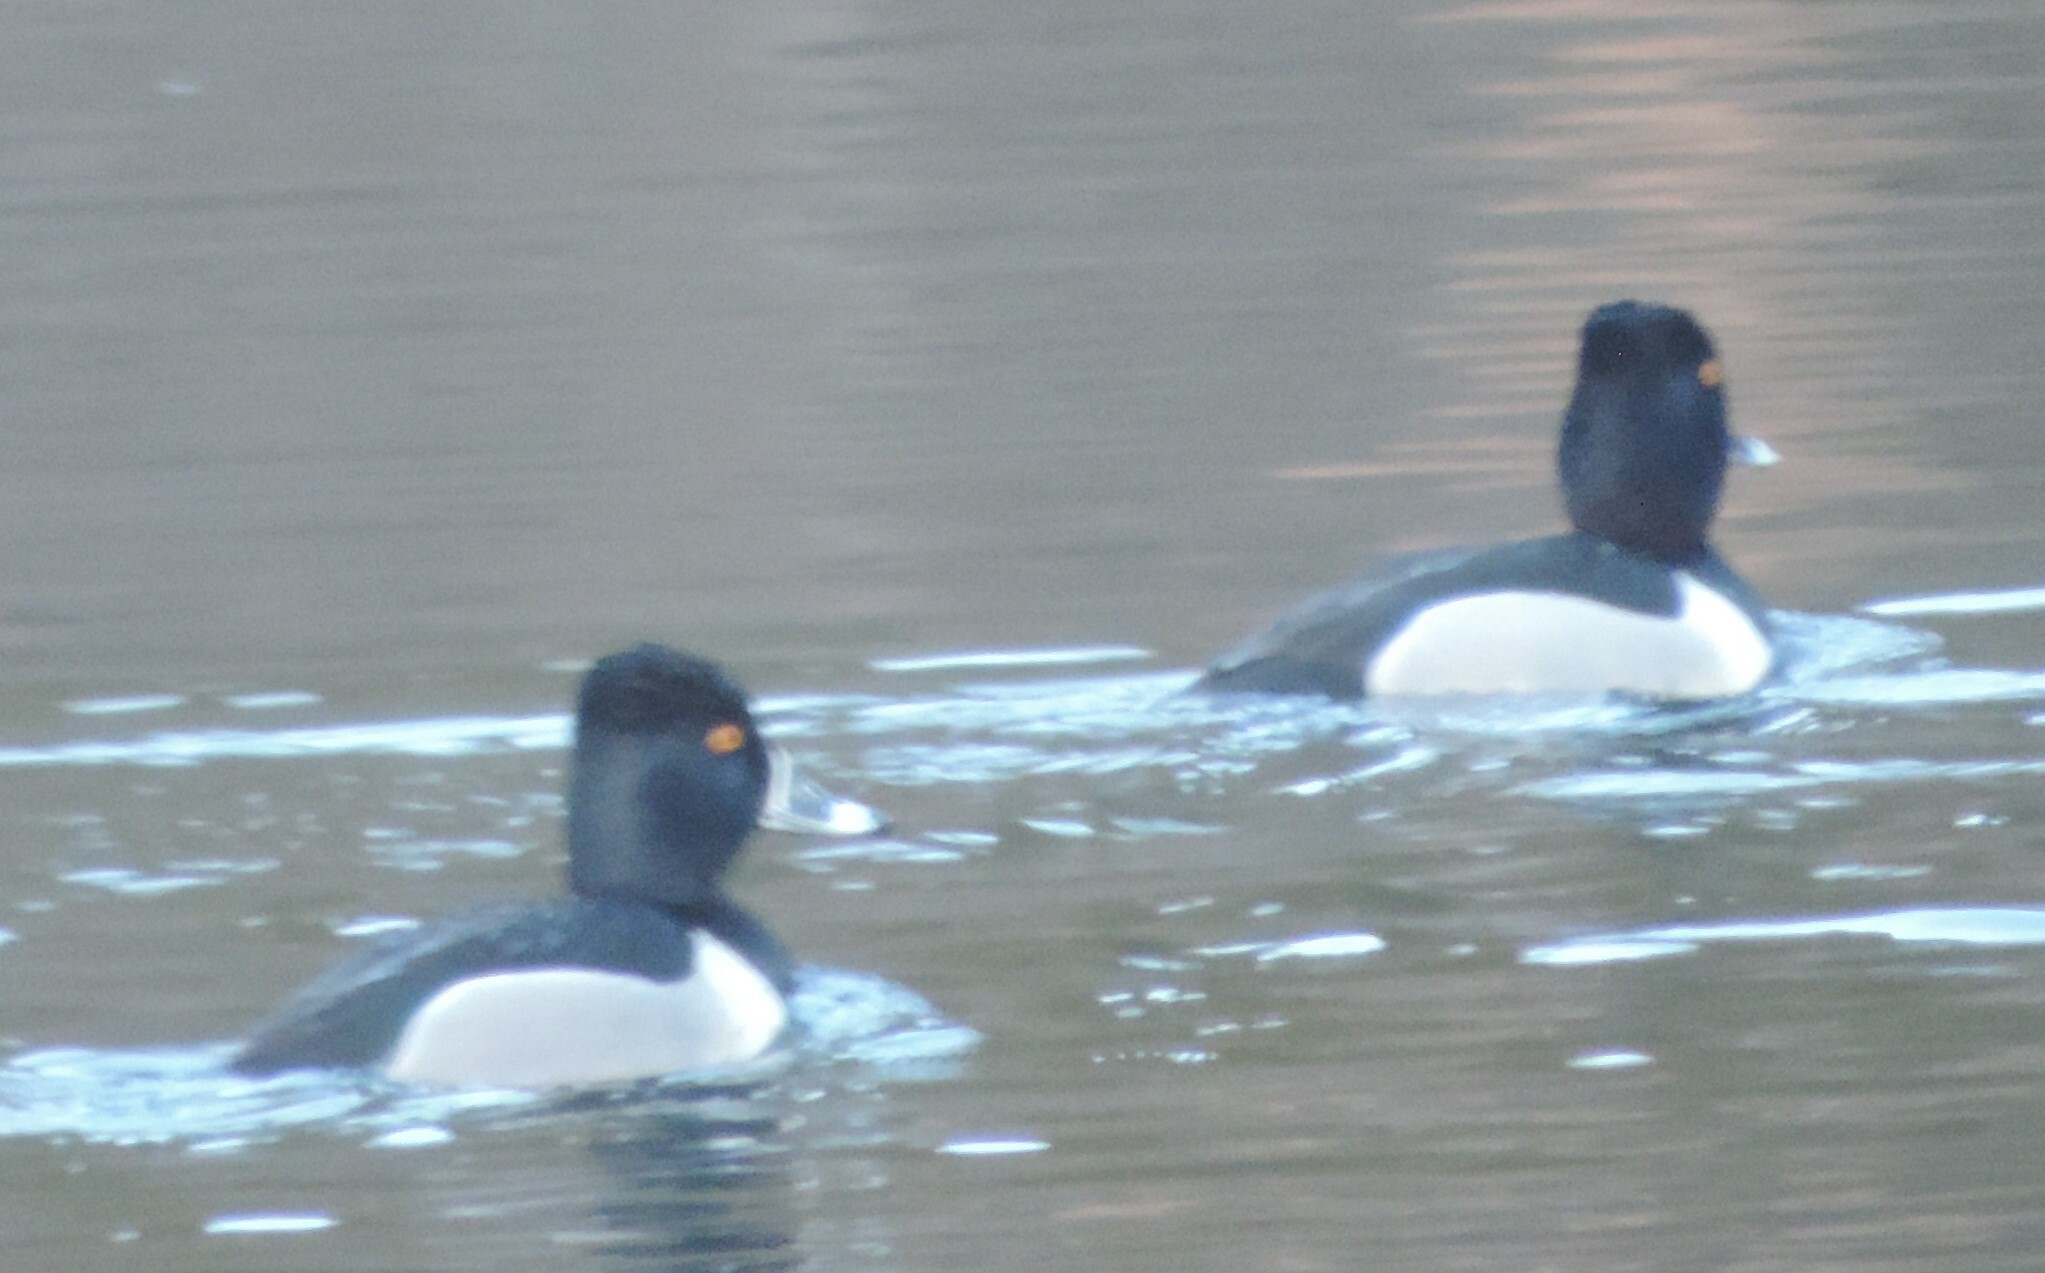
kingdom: Animalia
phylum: Chordata
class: Aves
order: Anseriformes
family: Anatidae
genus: Aythya
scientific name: Aythya collaris
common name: Ring-necked duck
